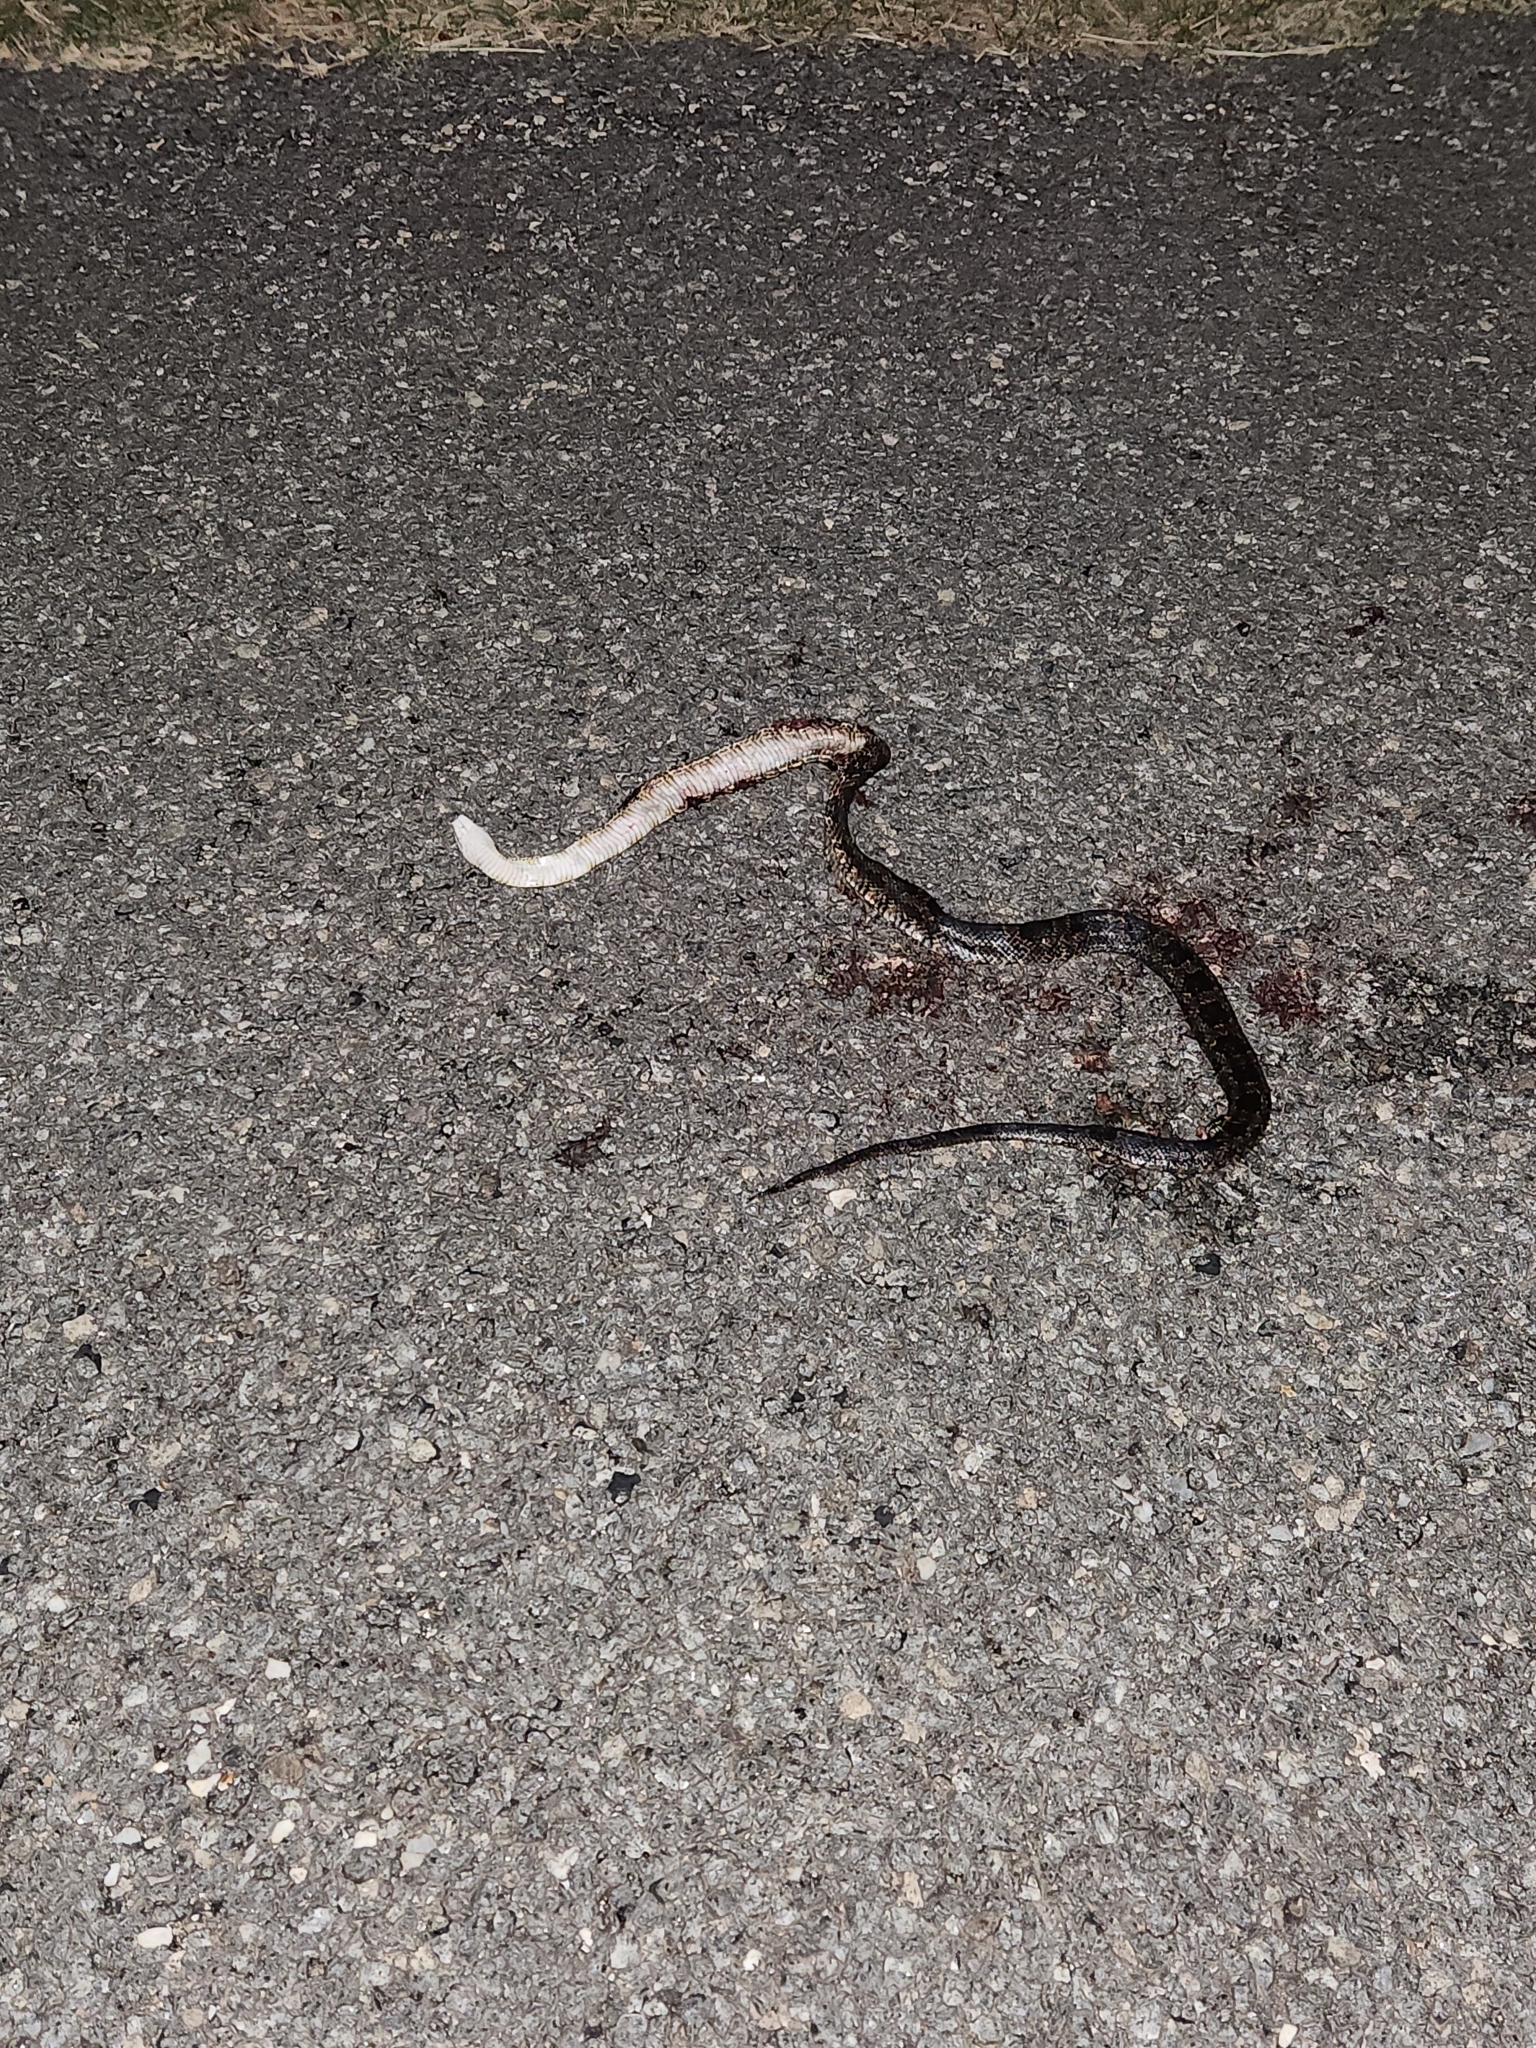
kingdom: Animalia
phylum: Chordata
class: Squamata
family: Colubridae
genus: Pantherophis
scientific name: Pantherophis obsoletus
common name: Black rat snake
